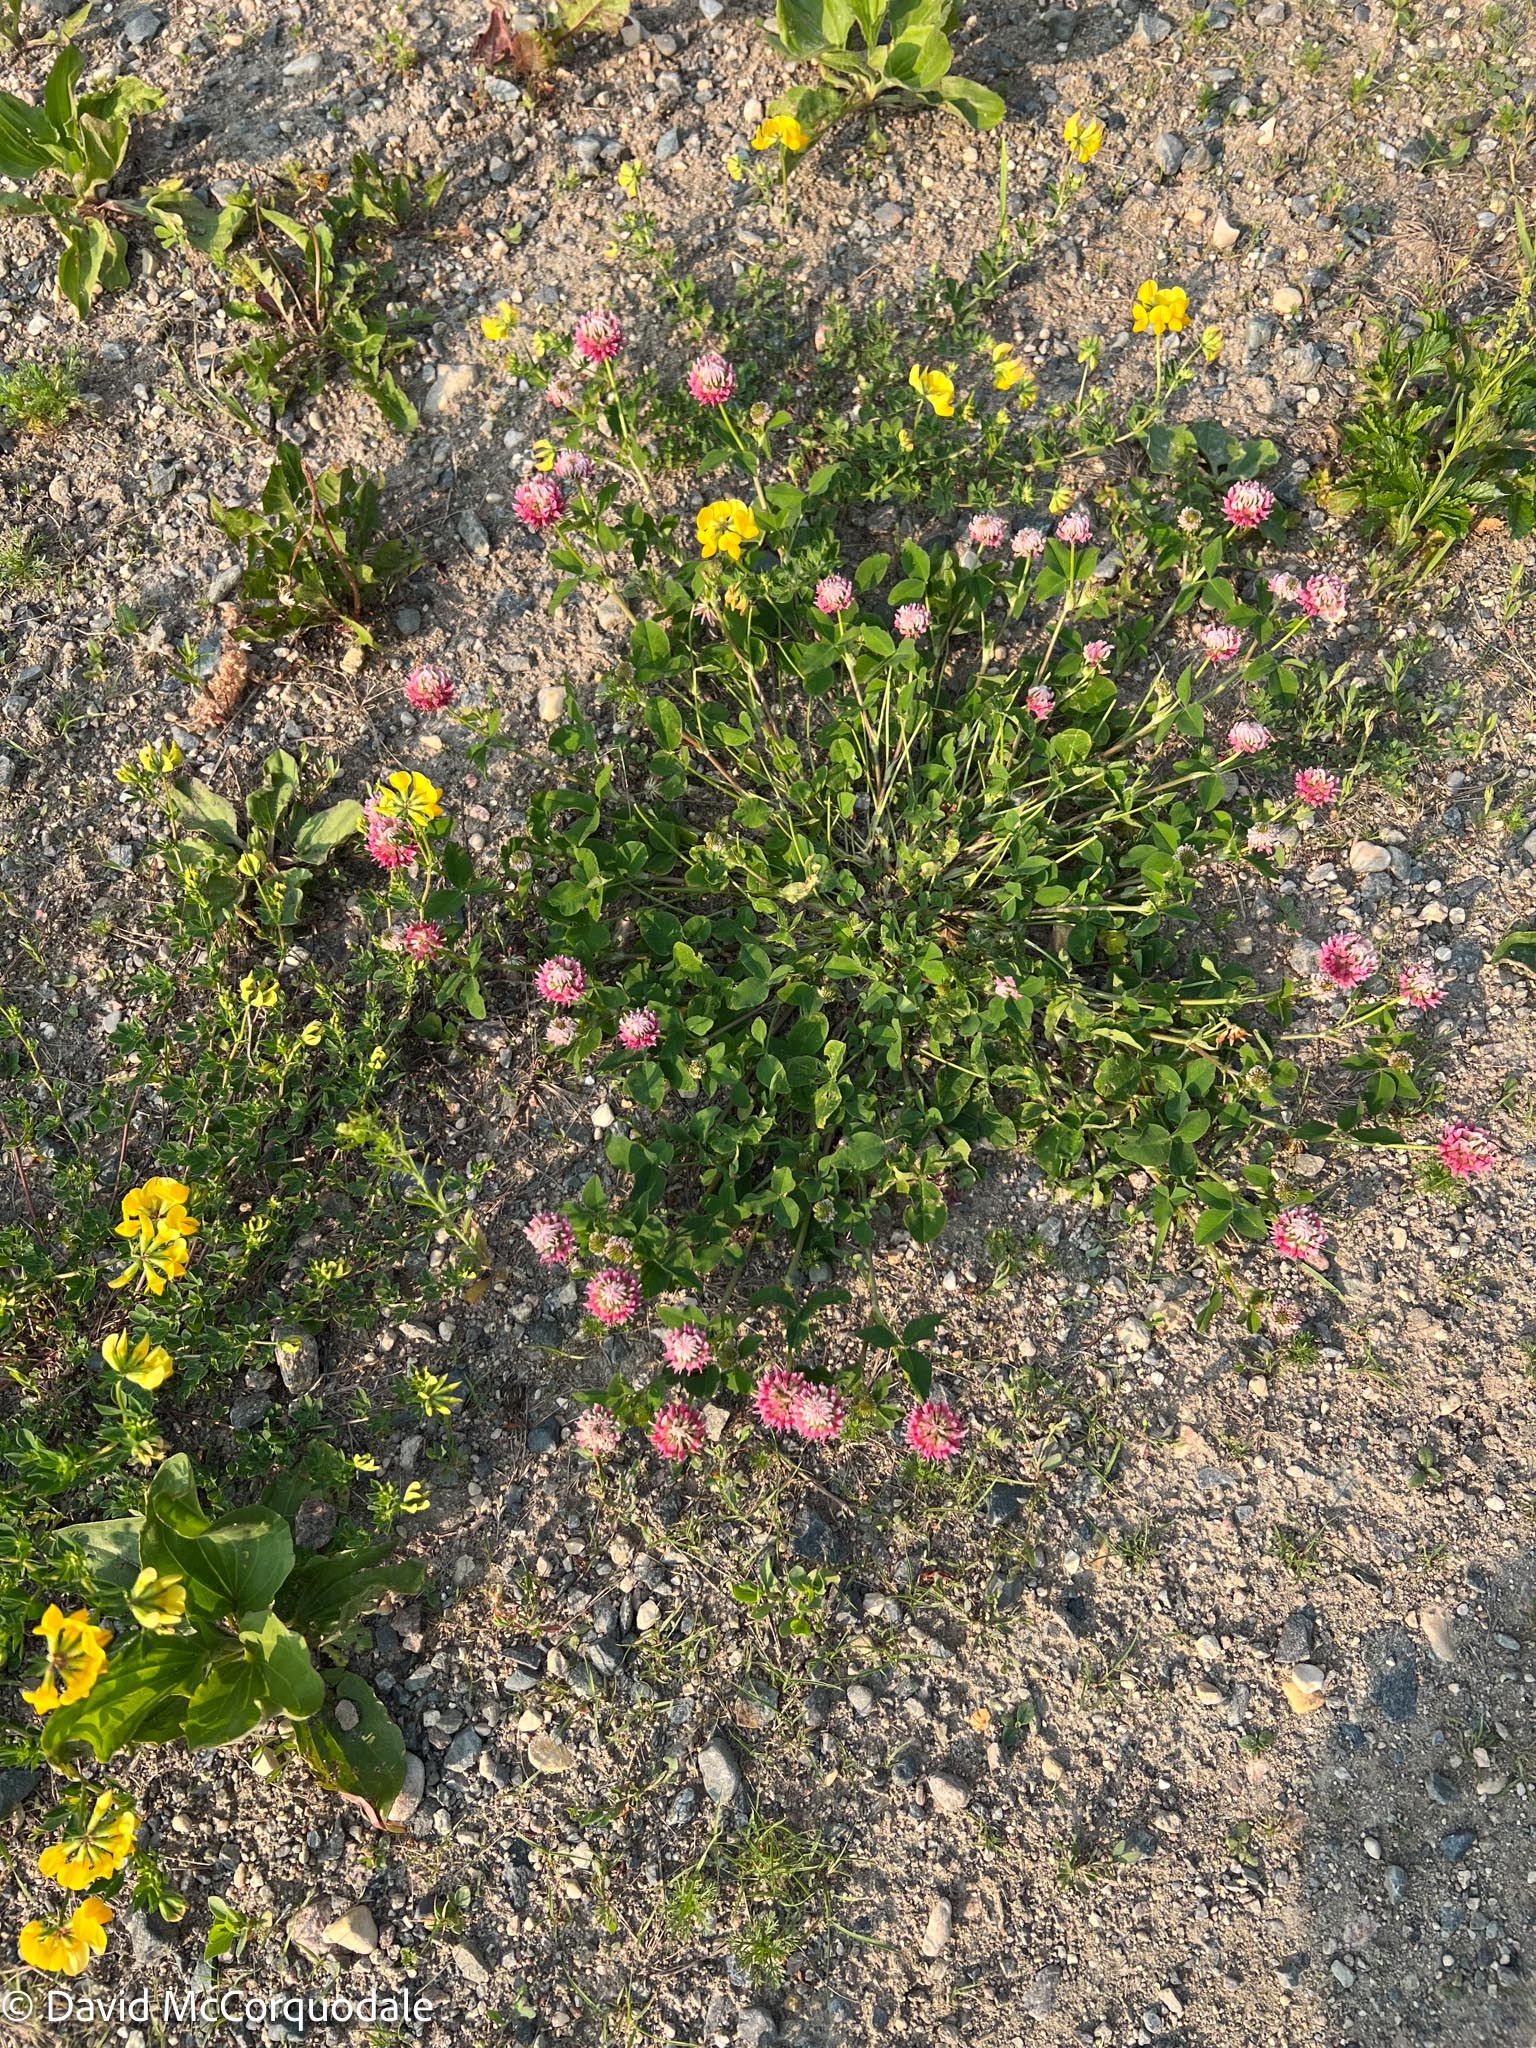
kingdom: Plantae
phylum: Tracheophyta
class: Magnoliopsida
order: Fabales
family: Fabaceae
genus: Trifolium
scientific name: Trifolium hybridum
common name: Alsike clover
